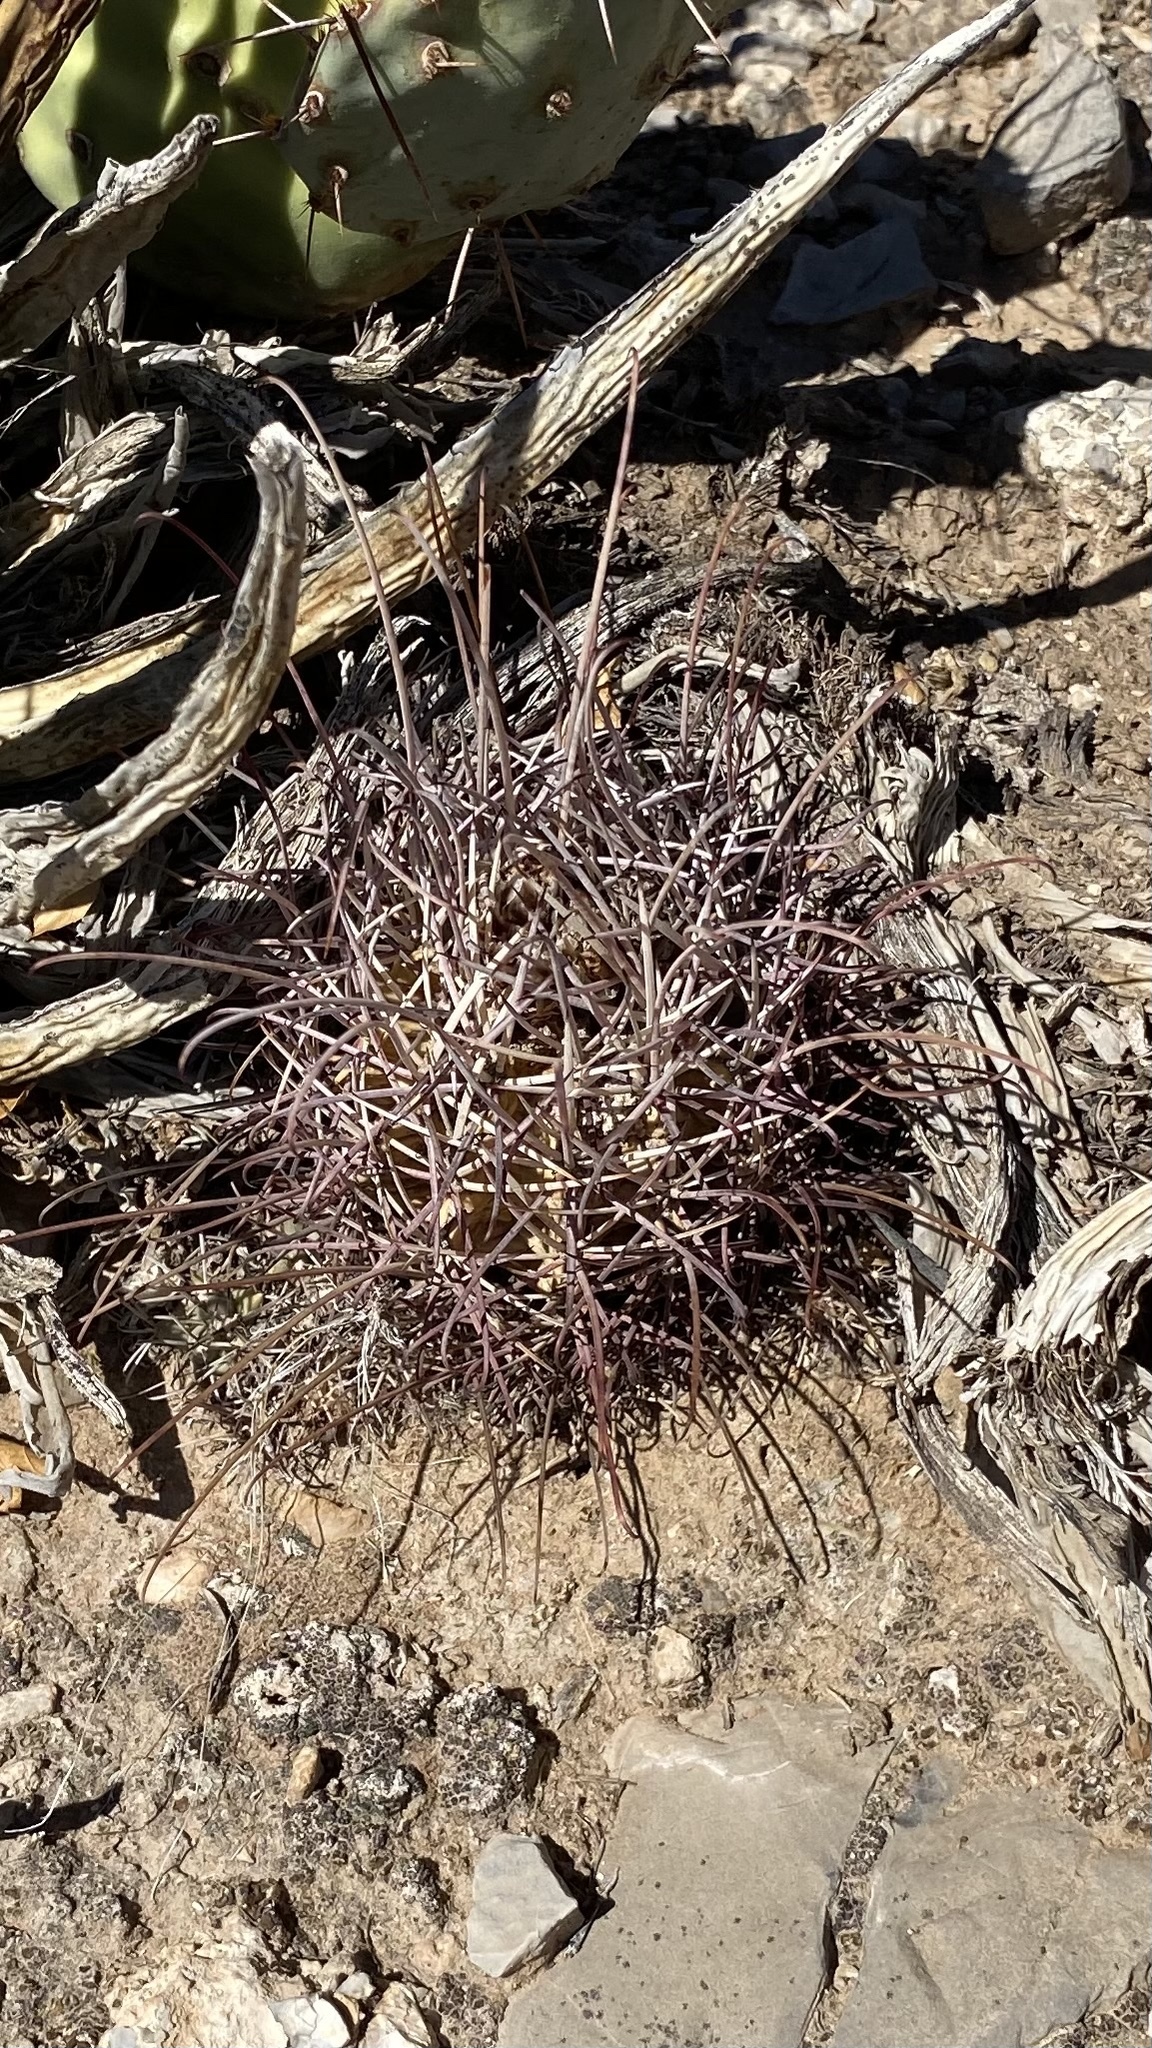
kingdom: Plantae
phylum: Tracheophyta
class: Magnoliopsida
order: Caryophyllales
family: Cactaceae
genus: Ferocactus
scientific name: Ferocactus uncinatus
